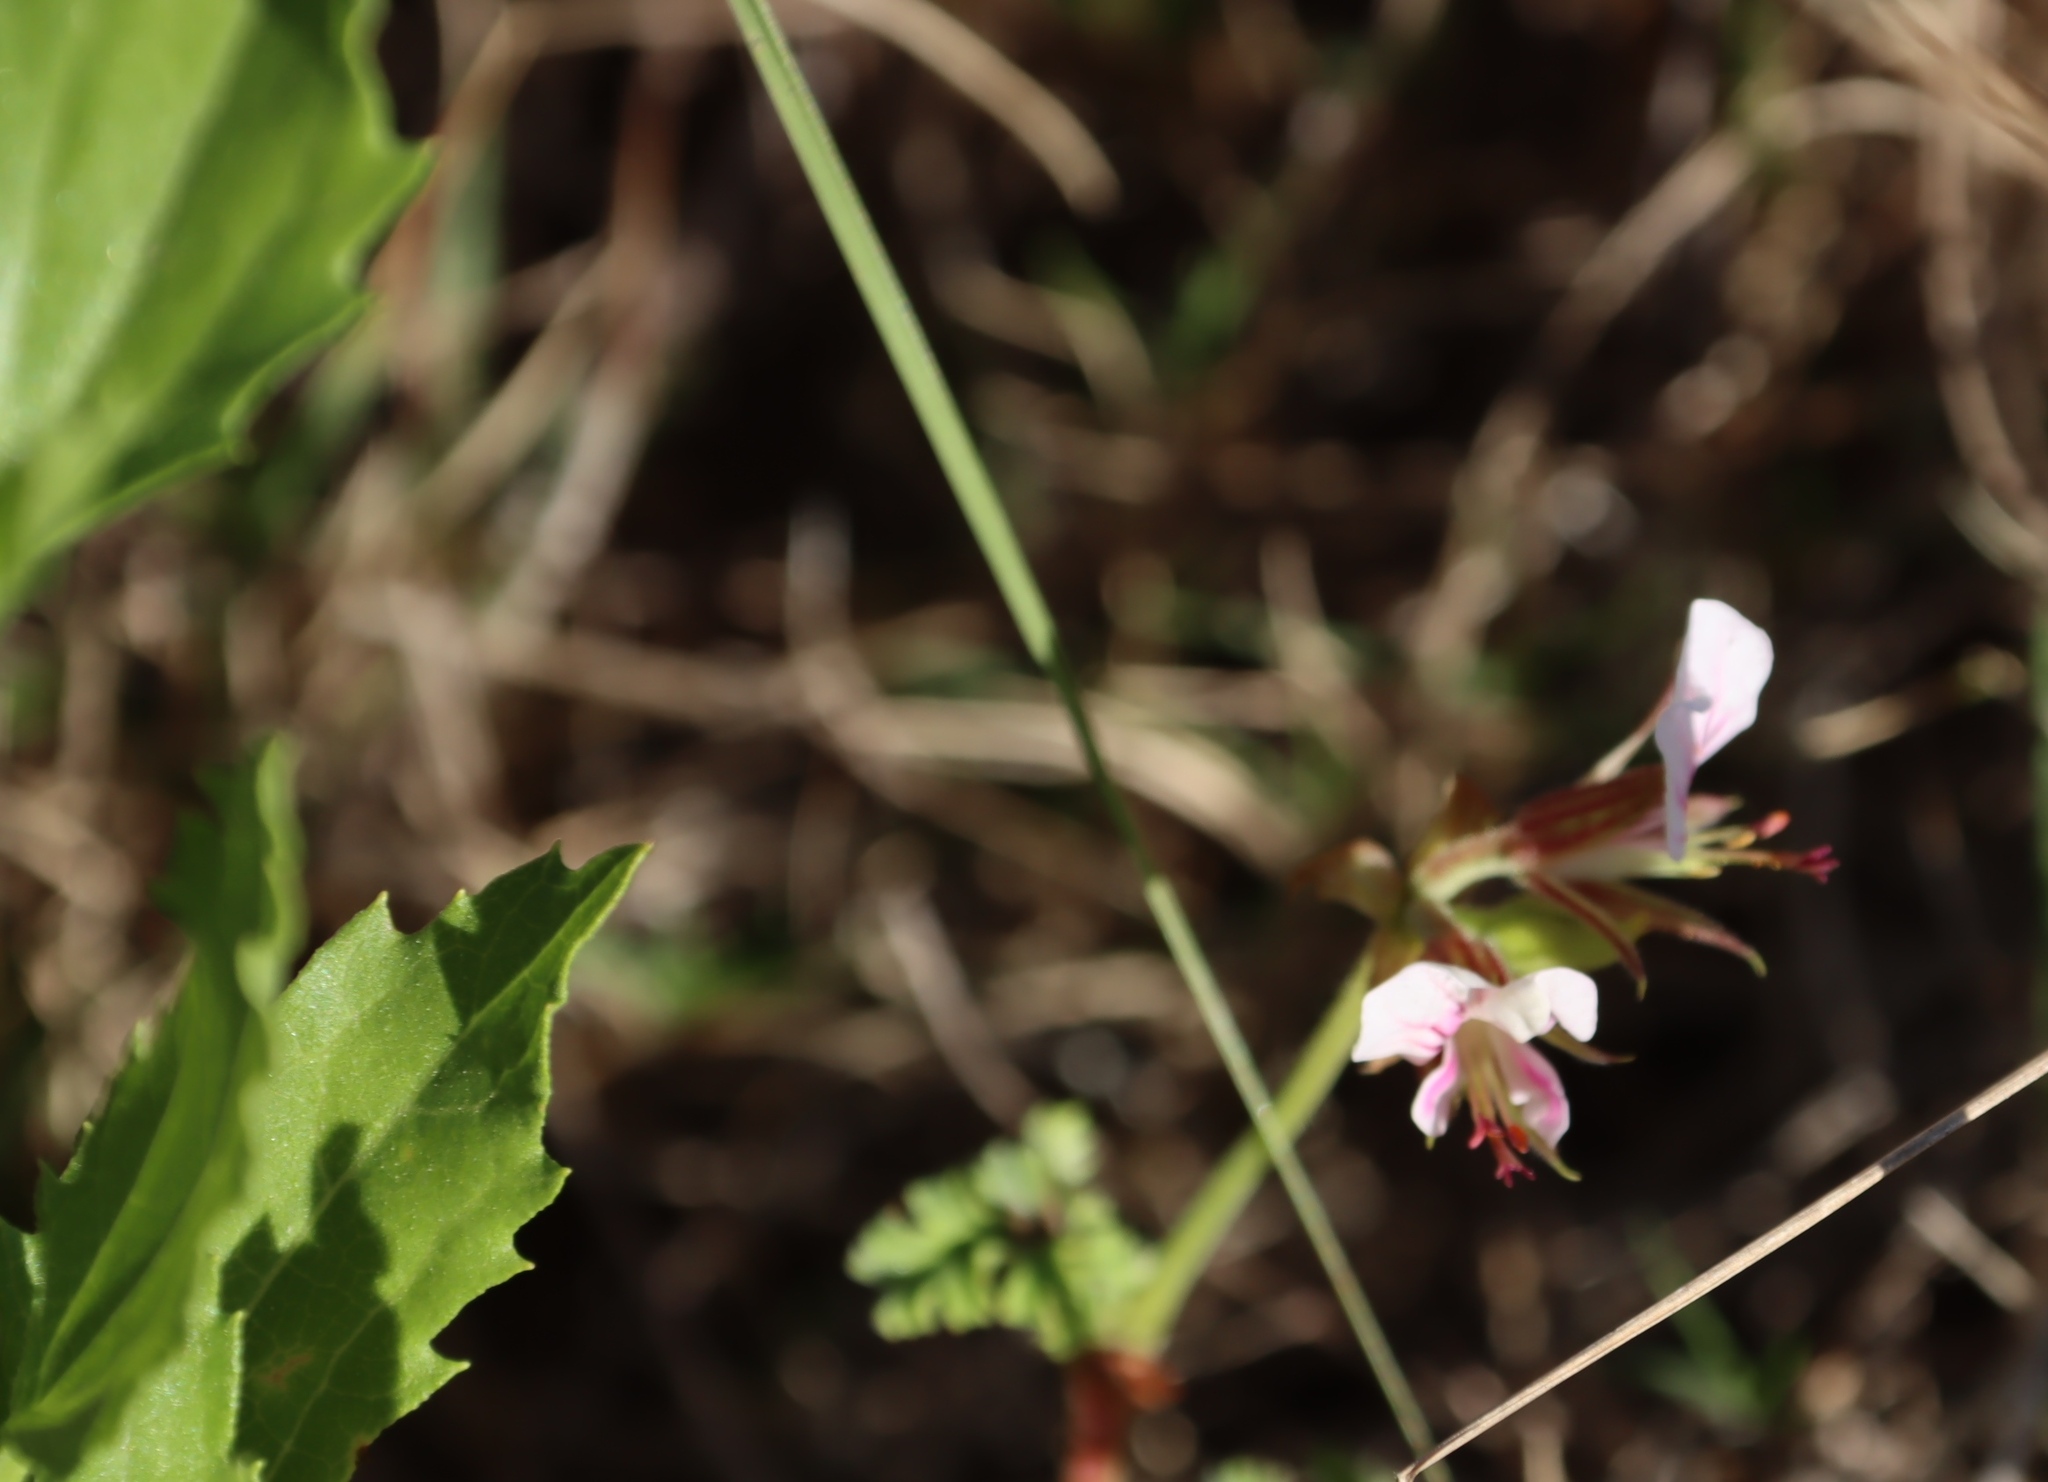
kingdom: Plantae
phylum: Tracheophyta
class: Magnoliopsida
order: Geraniales
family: Geraniaceae
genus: Pelargonium
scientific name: Pelargonium candicans
